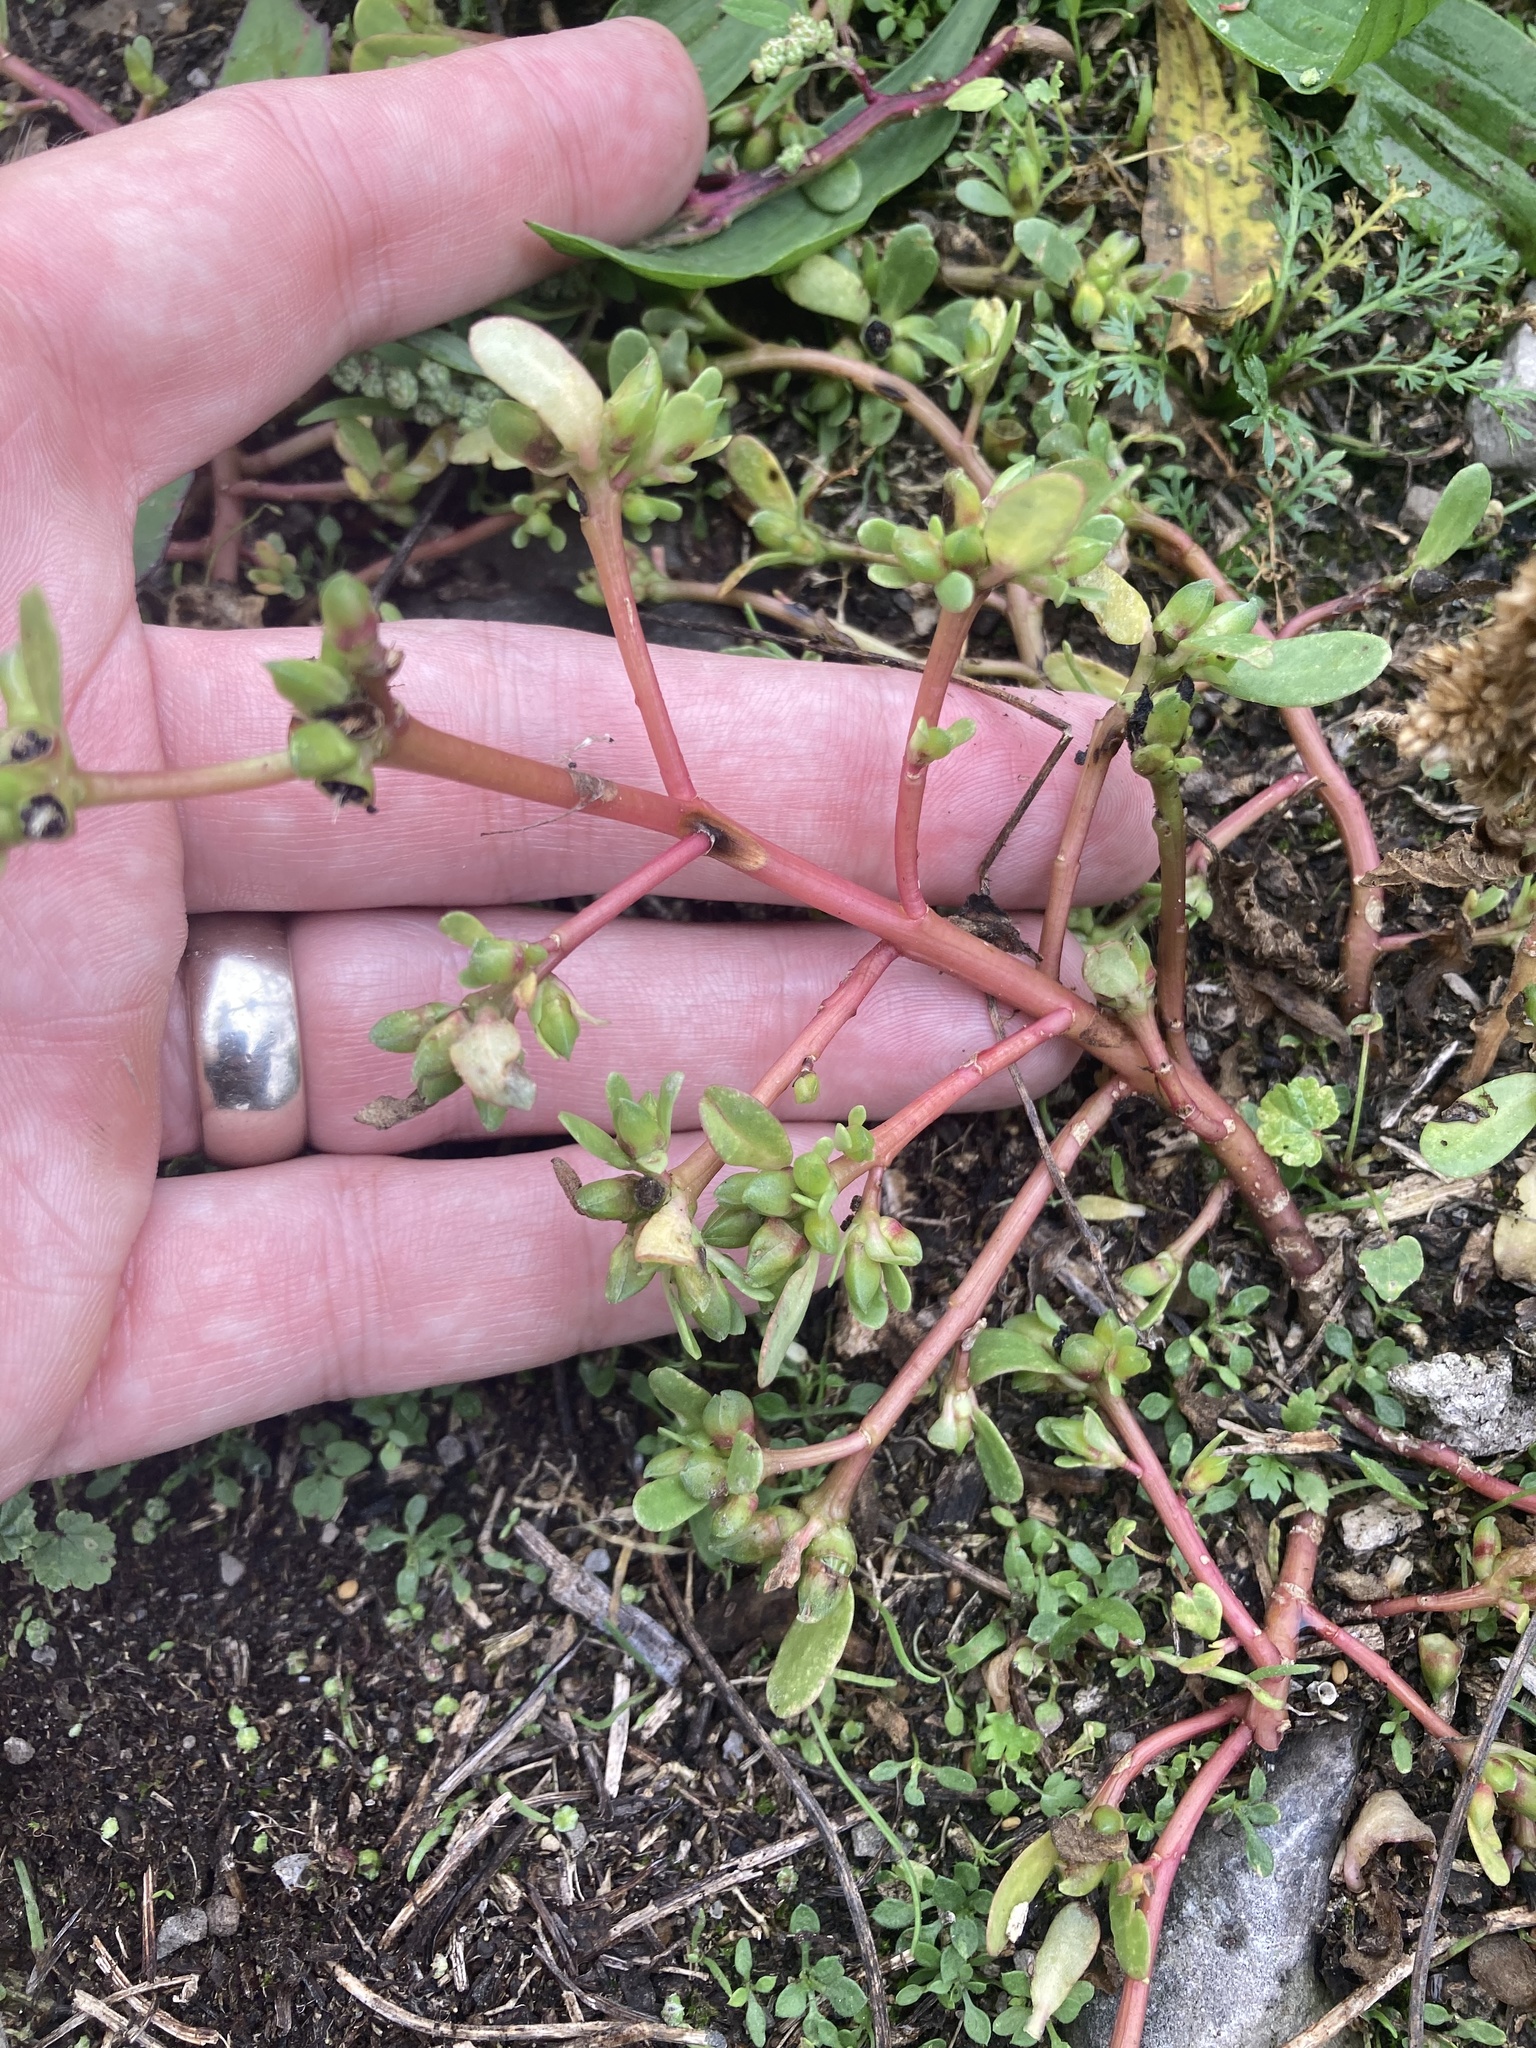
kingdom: Plantae
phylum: Tracheophyta
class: Magnoliopsida
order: Caryophyllales
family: Portulacaceae
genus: Portulaca
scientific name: Portulaca oleracea
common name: Common purslane
